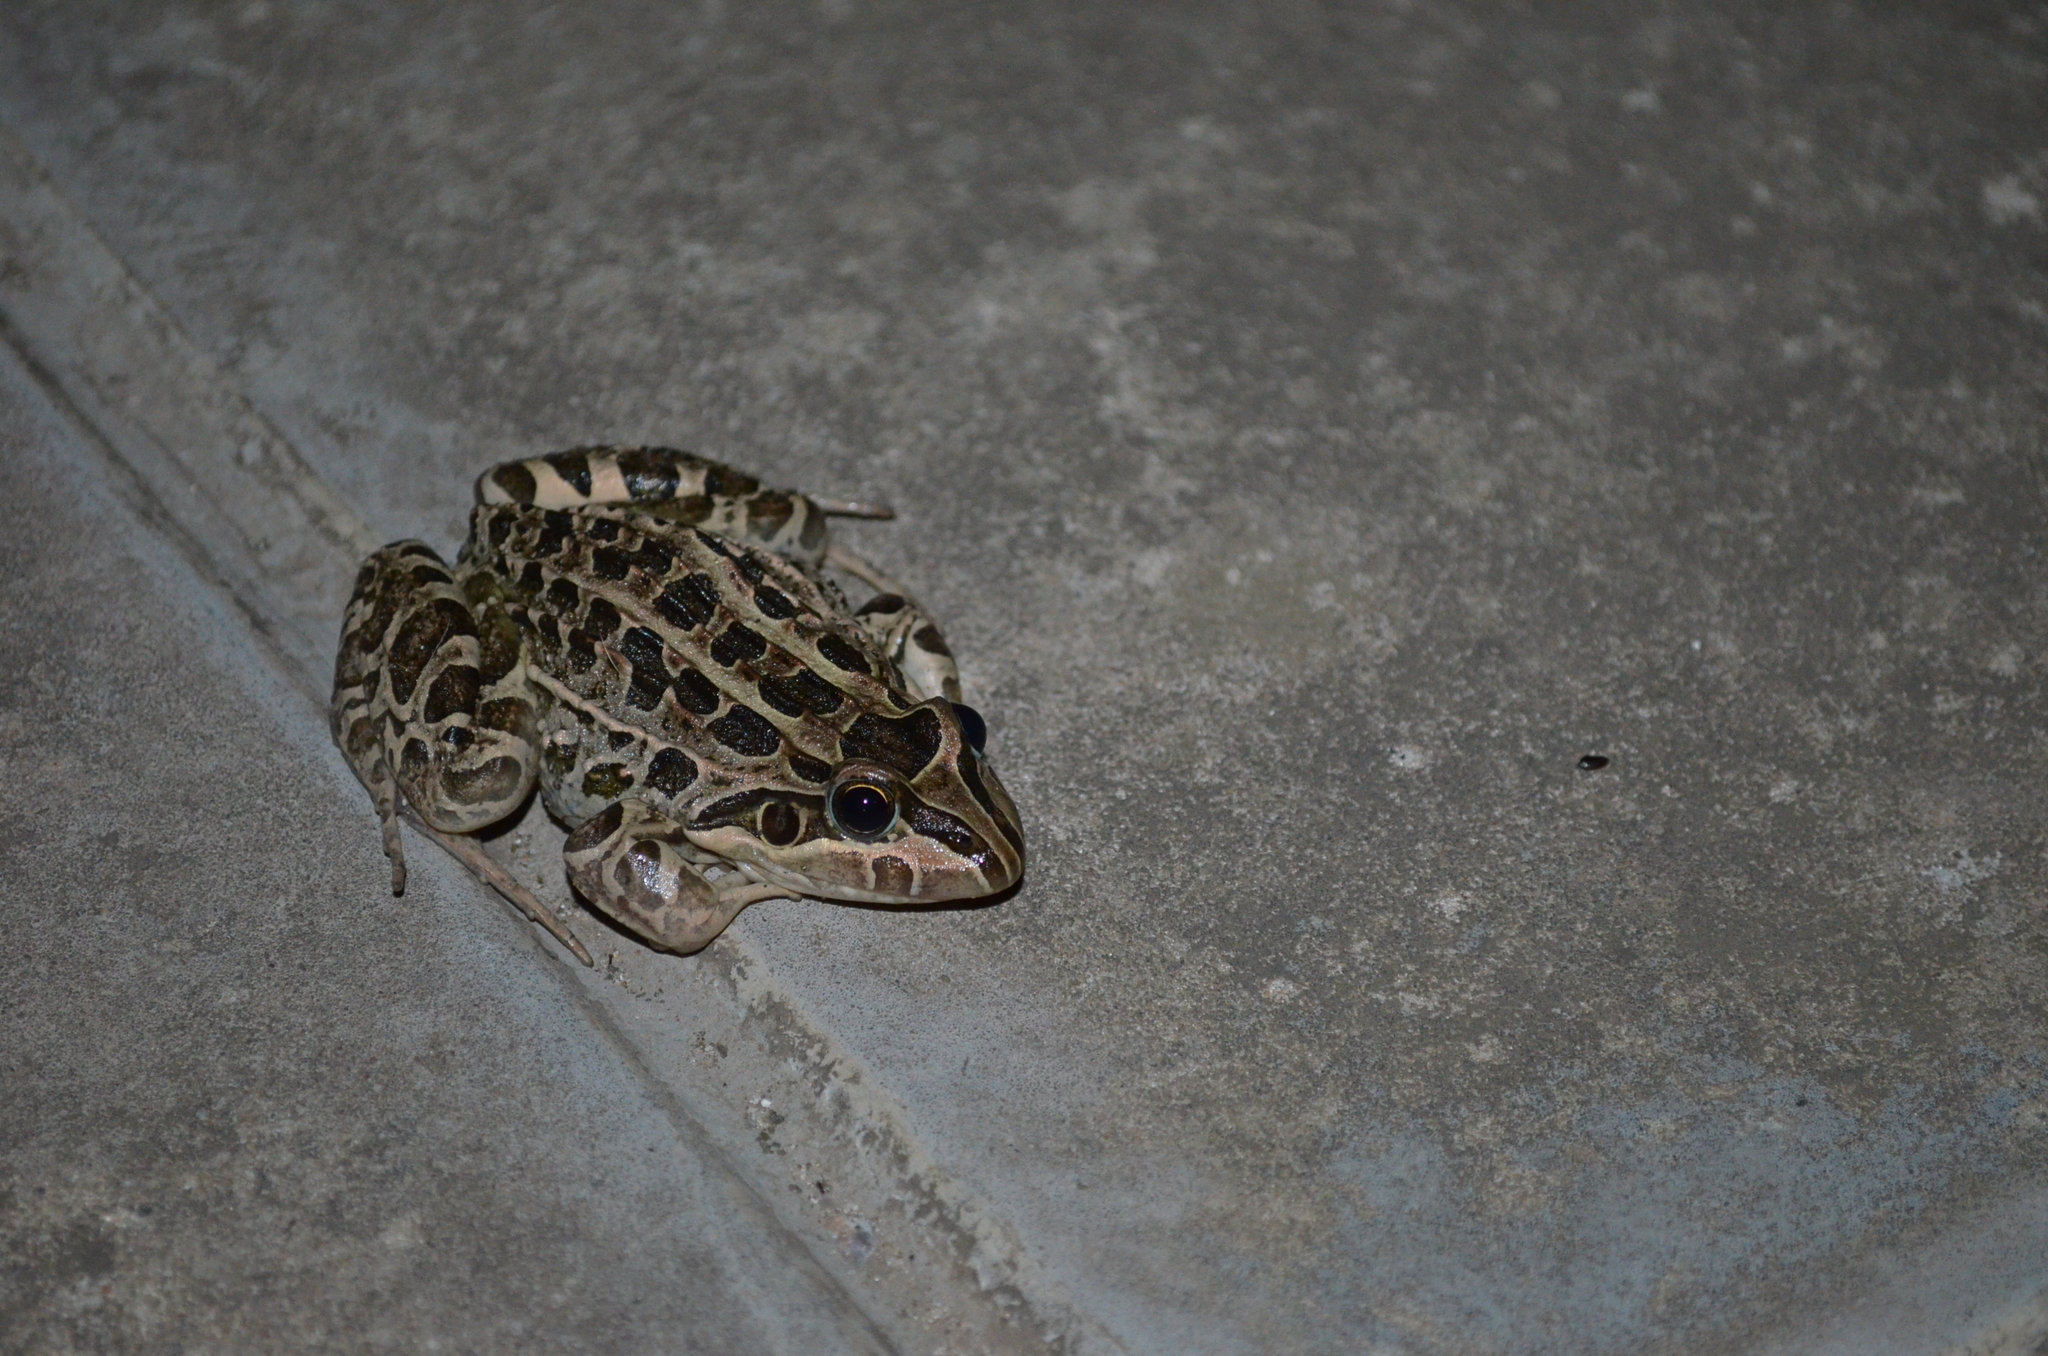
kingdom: Animalia
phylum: Chordata
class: Amphibia
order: Anura
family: Leptodactylidae
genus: Leptodactylus
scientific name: Leptodactylus luctator
